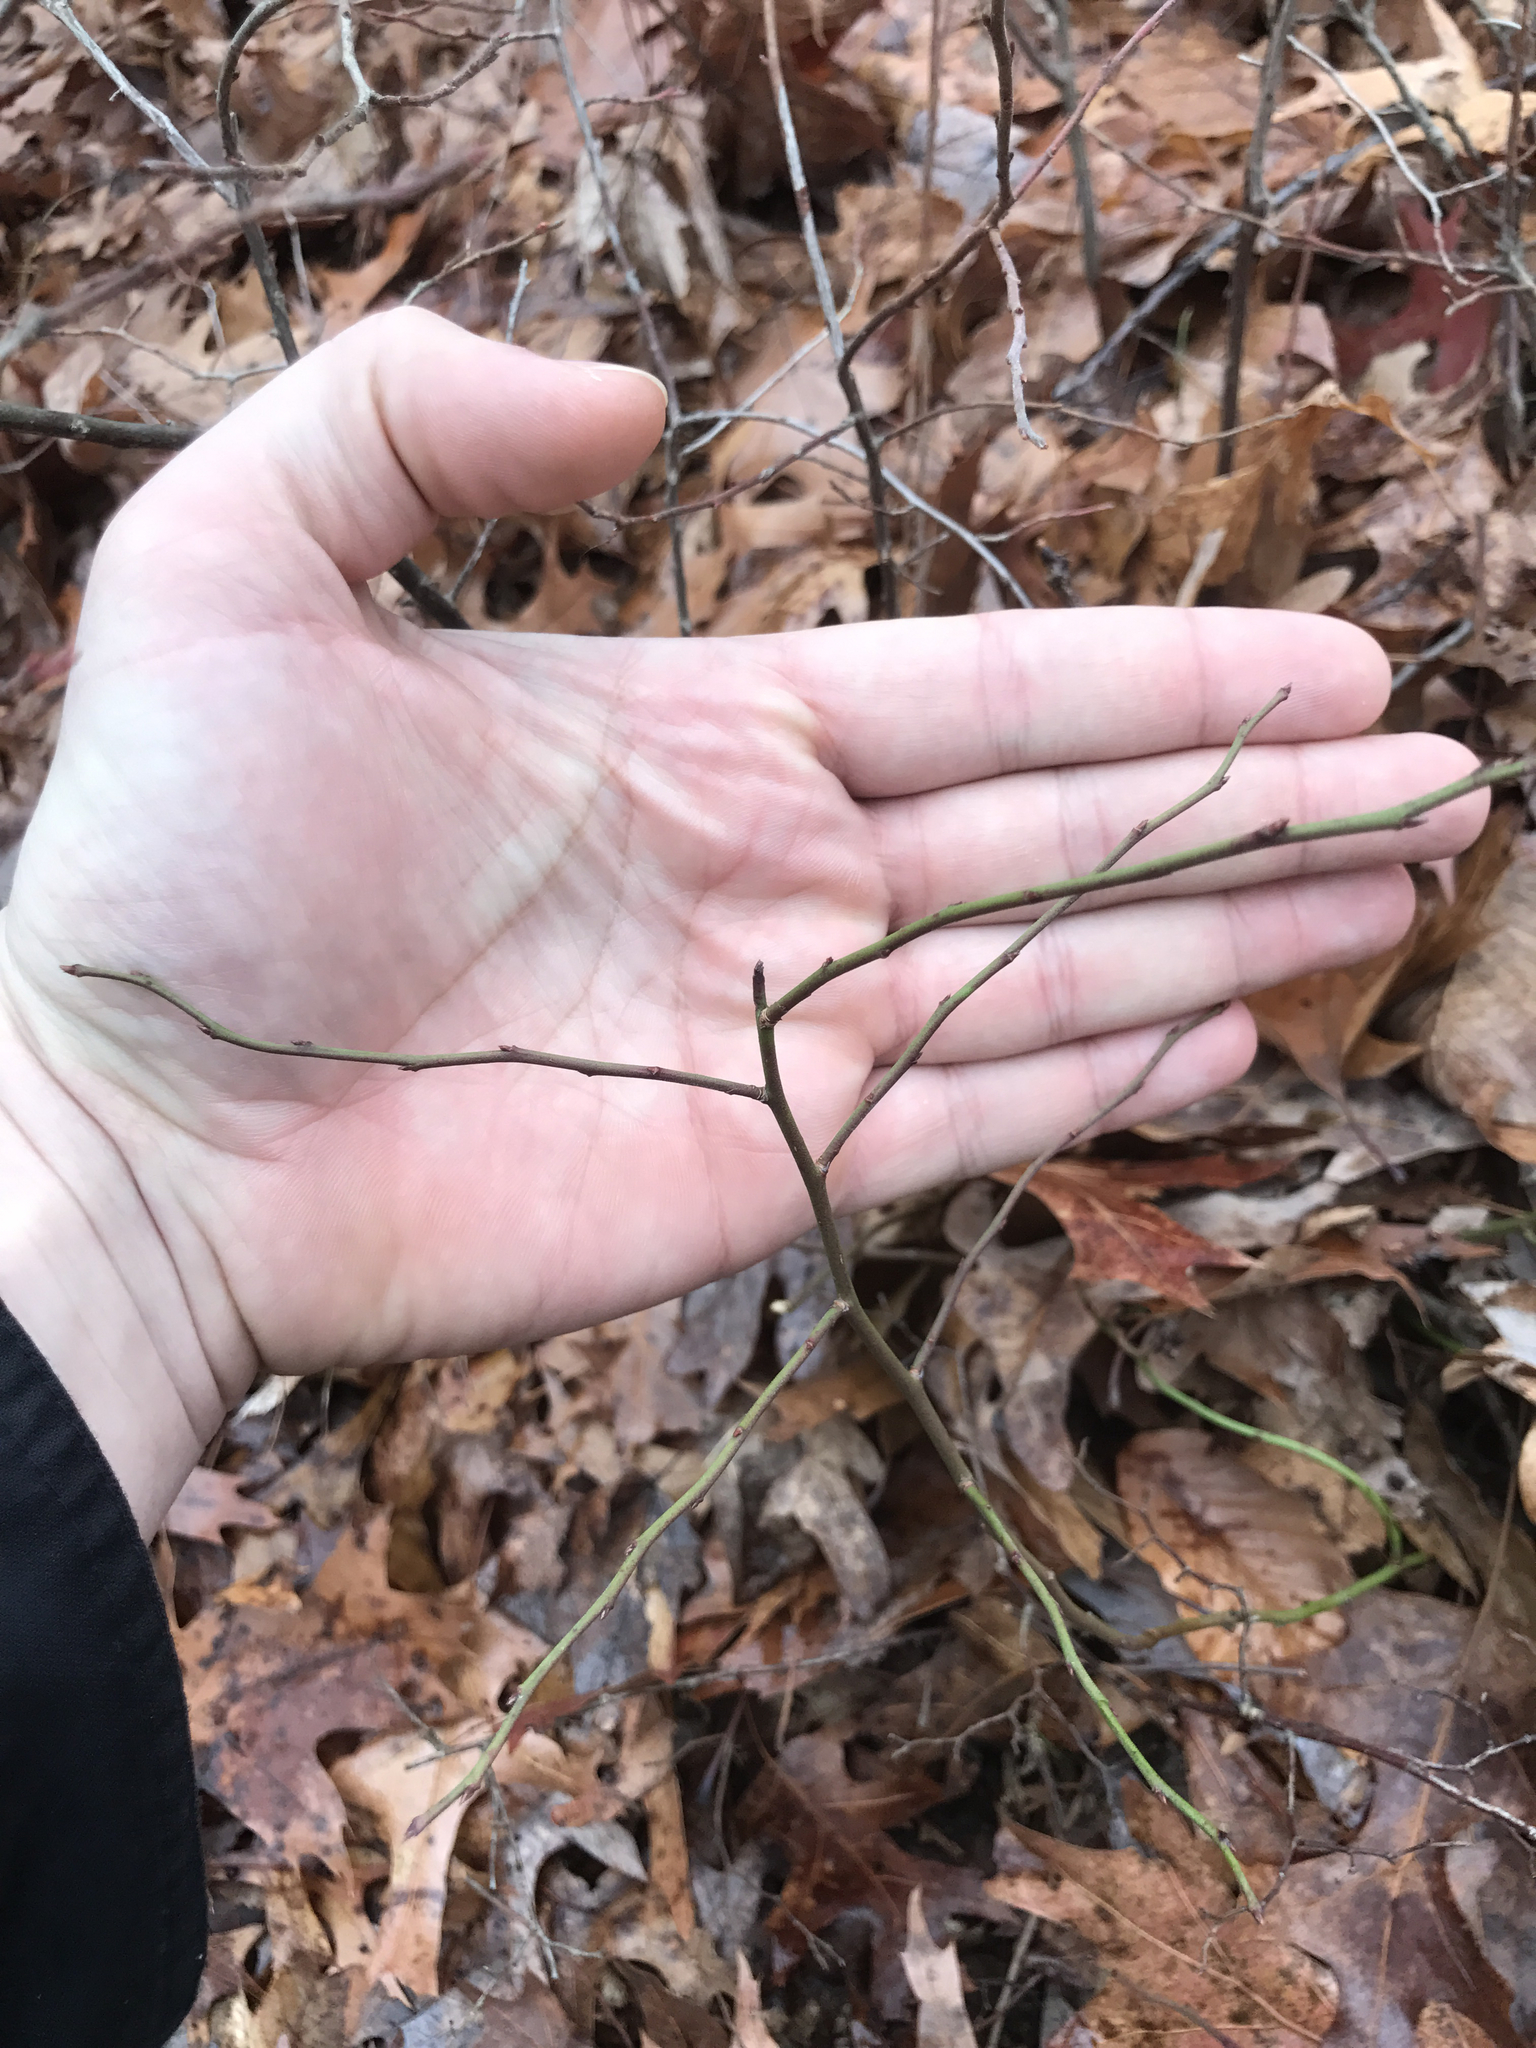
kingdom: Plantae
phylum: Tracheophyta
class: Magnoliopsida
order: Ericales
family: Ericaceae
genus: Vaccinium
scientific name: Vaccinium pallidum
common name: Blue ridge blueberry
